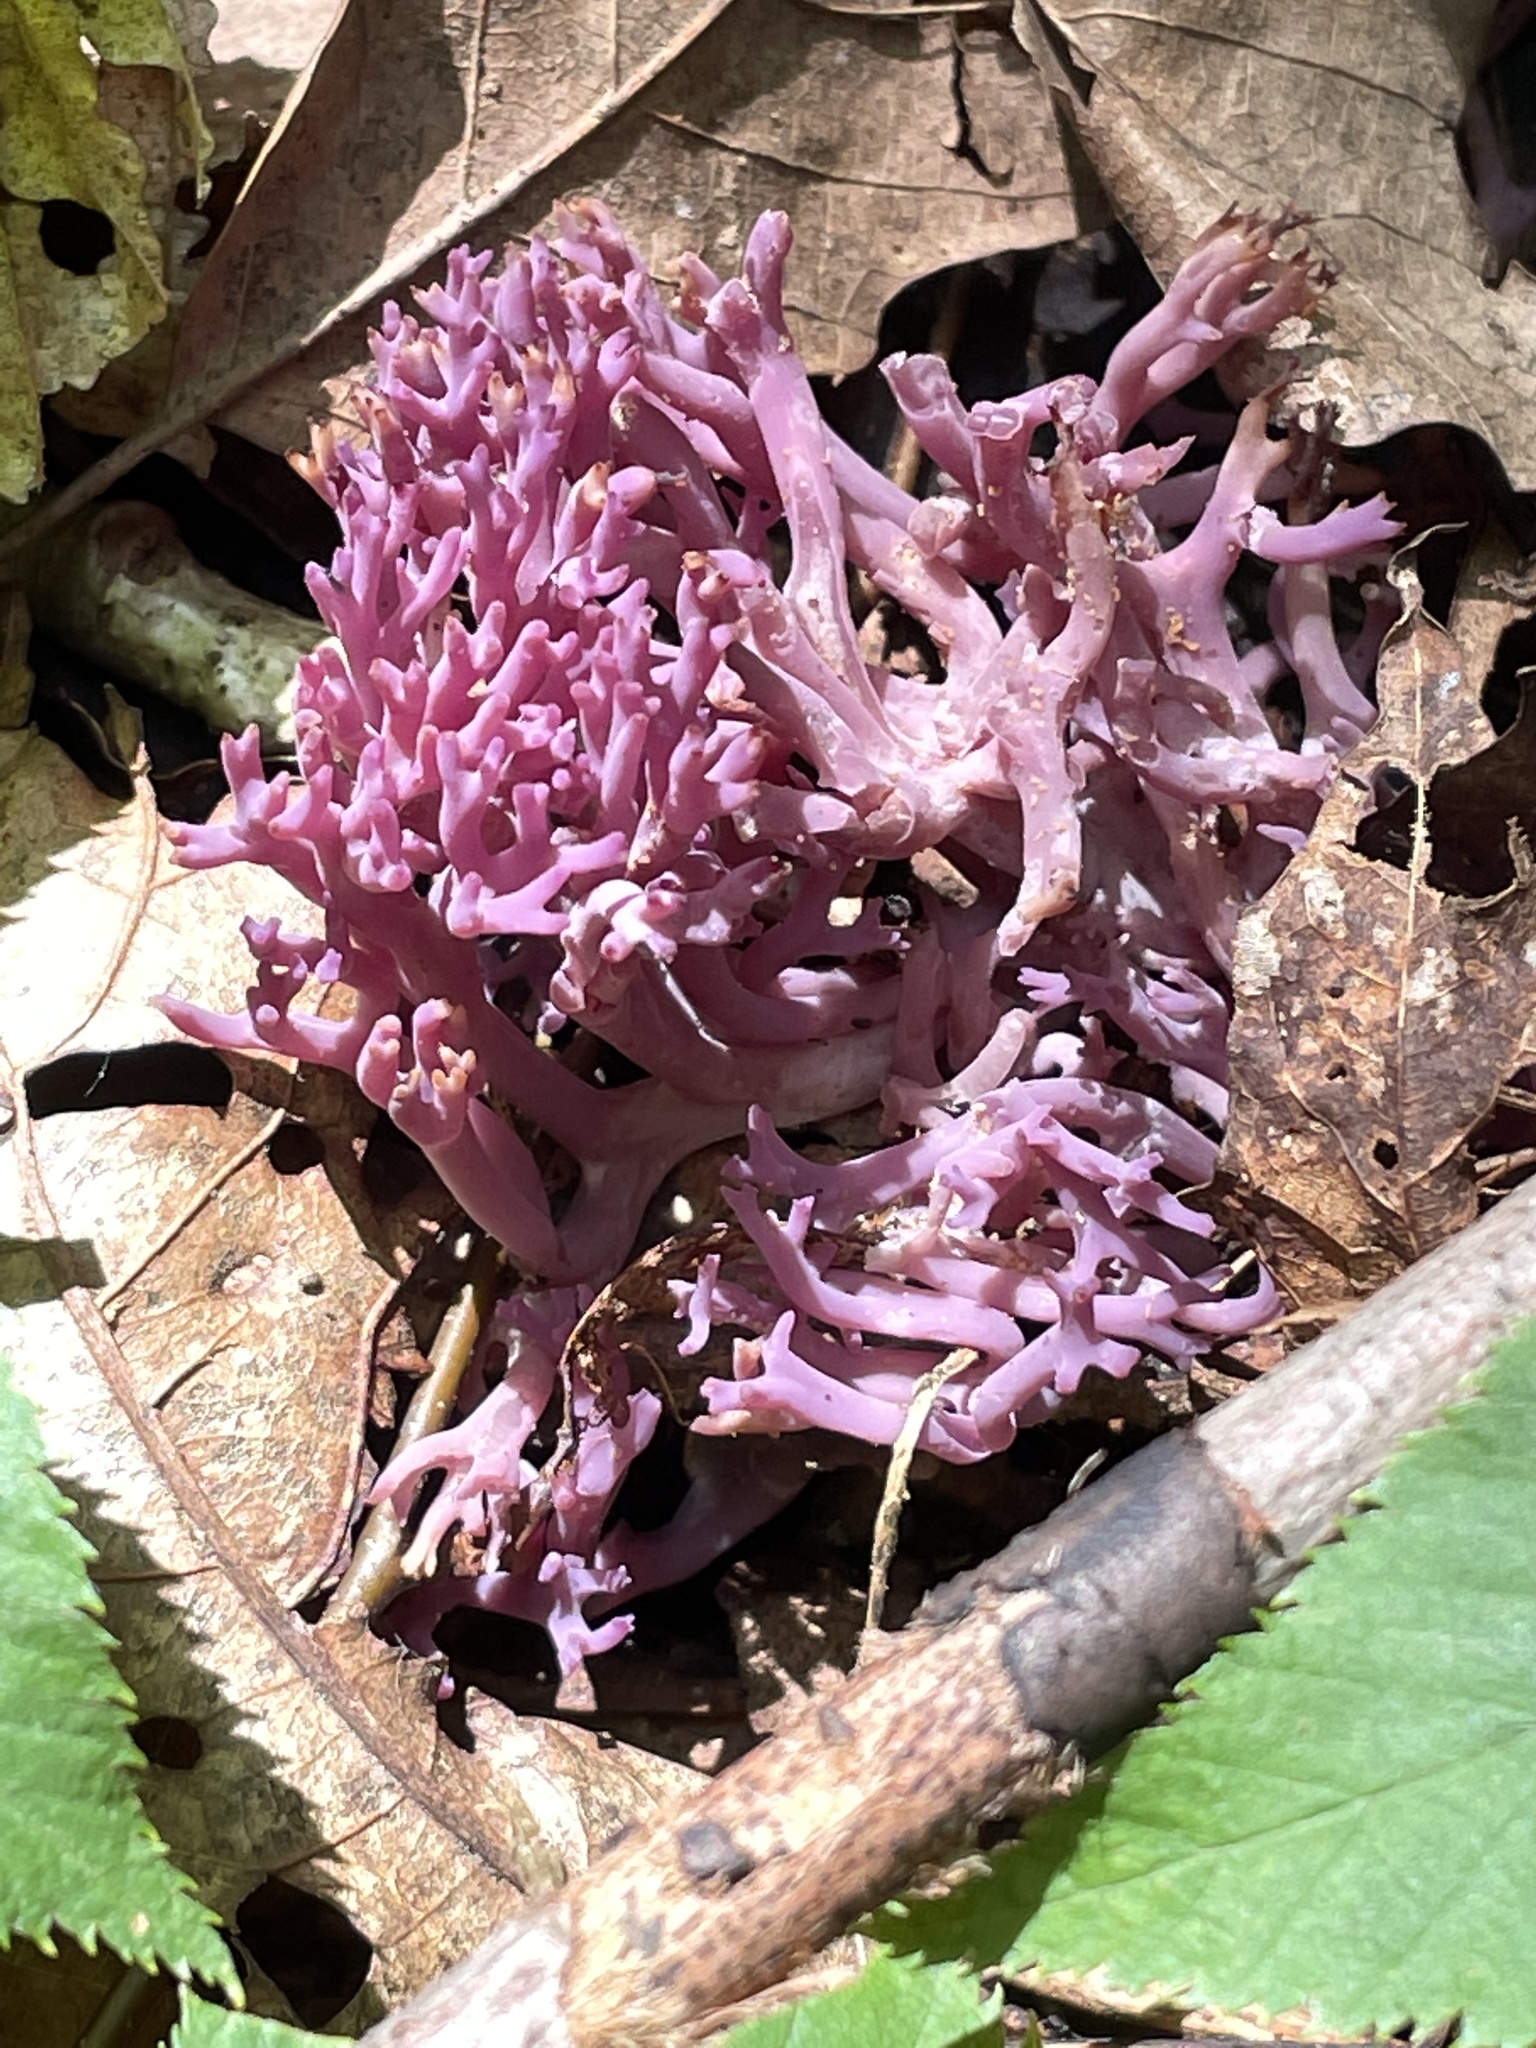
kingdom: Fungi
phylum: Basidiomycota
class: Agaricomycetes
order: Agaricales
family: Clavariaceae
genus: Clavaria
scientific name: Clavaria zollingeri
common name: Violet coral
